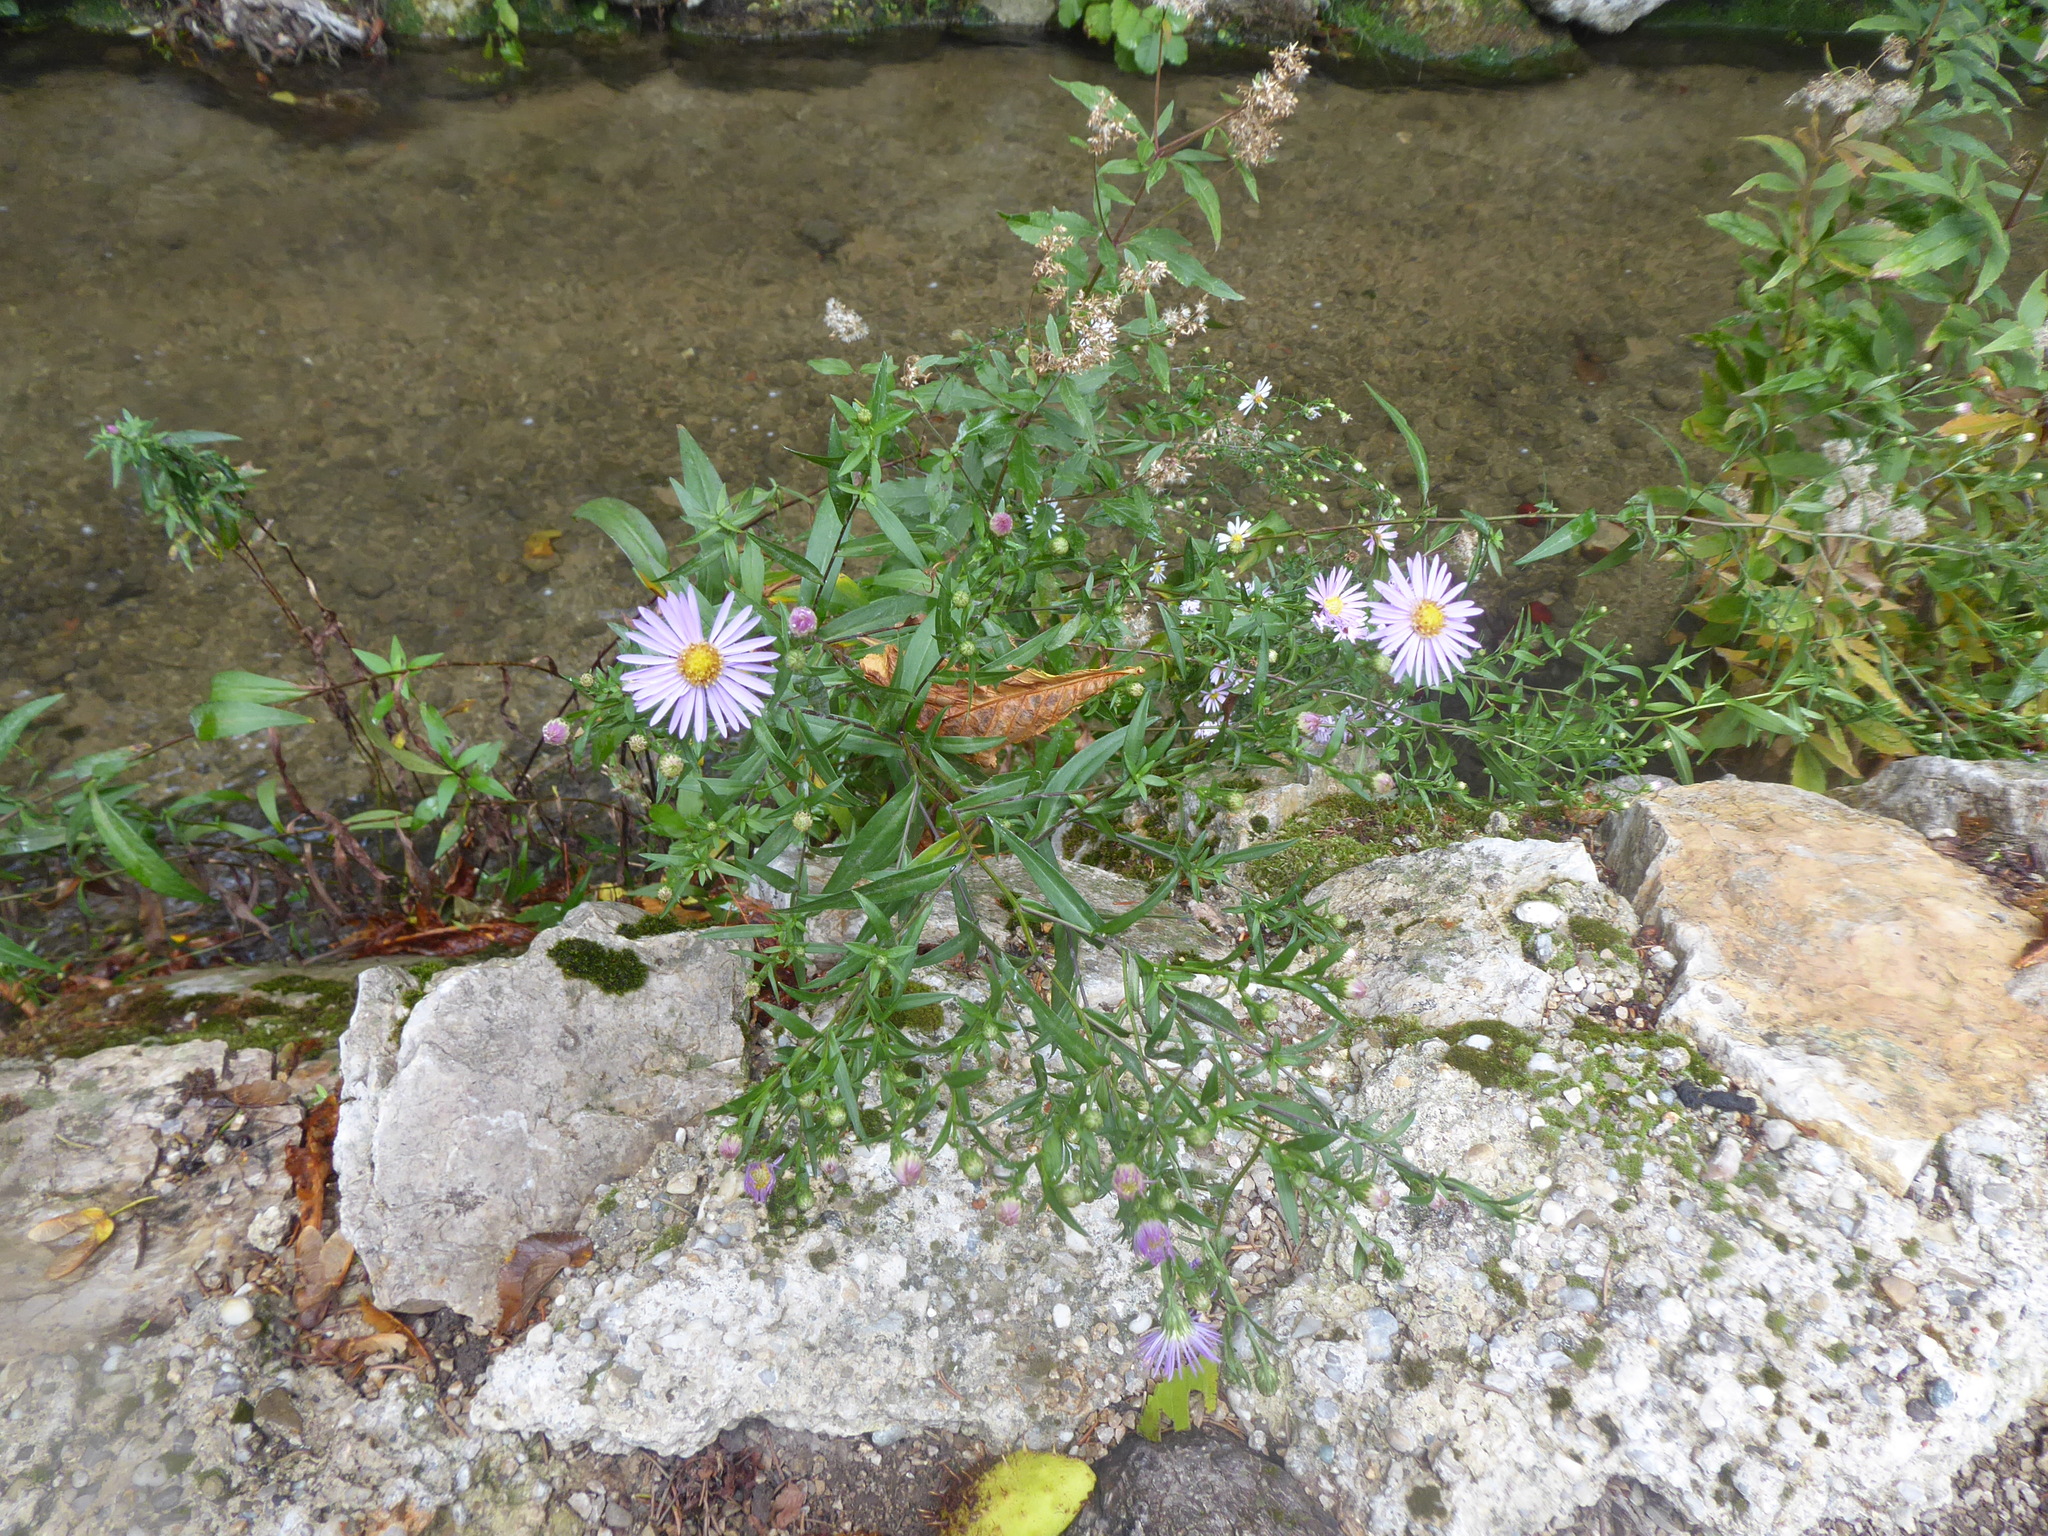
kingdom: Plantae
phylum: Tracheophyta
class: Magnoliopsida
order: Asterales
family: Asteraceae
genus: Symphyotrichum
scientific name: Symphyotrichum novi-belgii
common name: Michaelmas daisy
